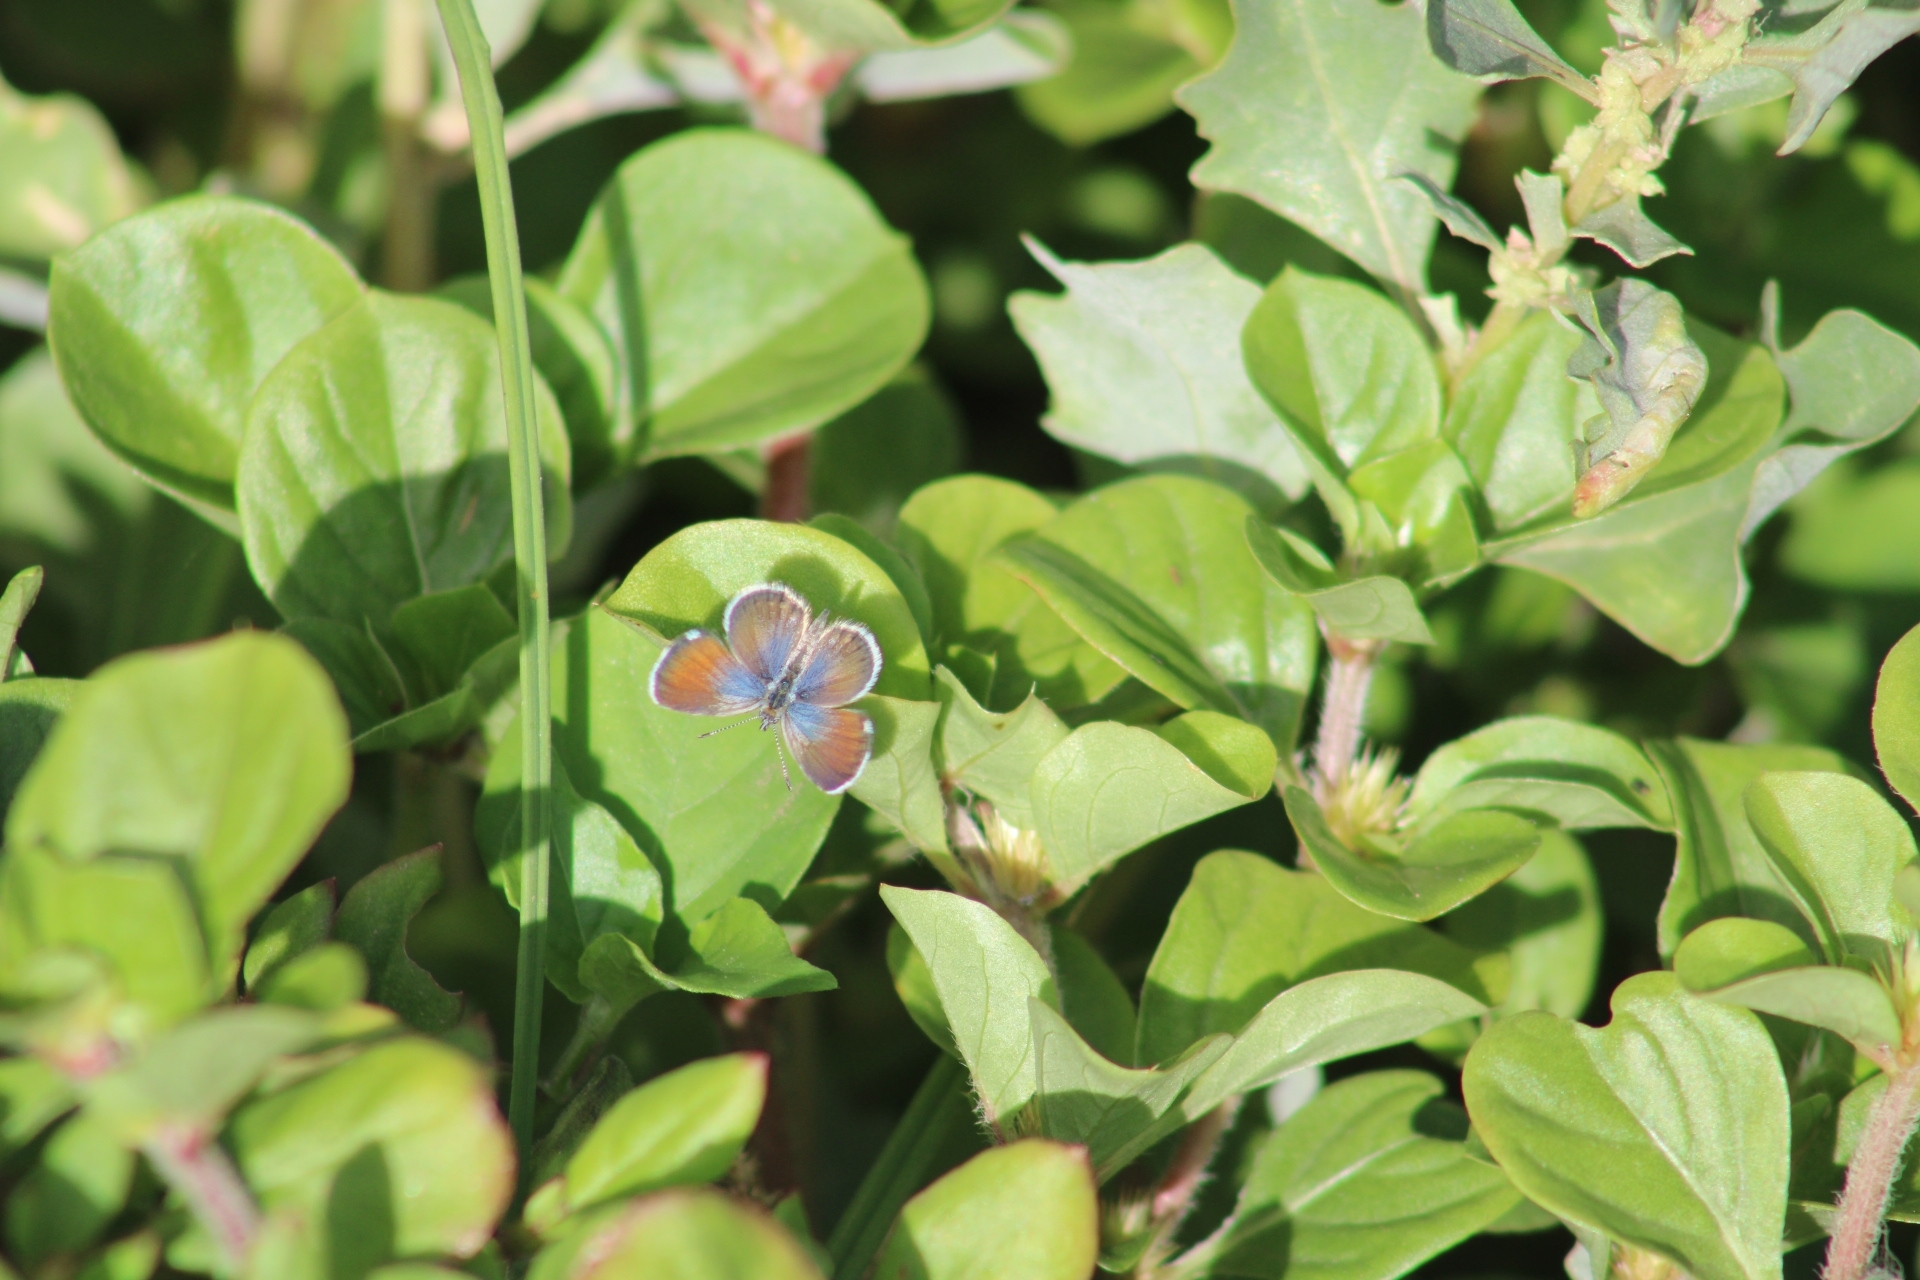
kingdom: Animalia
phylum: Arthropoda
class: Insecta
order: Lepidoptera
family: Lycaenidae
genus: Brephidium
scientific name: Brephidium exilis
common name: Pygmy blue
